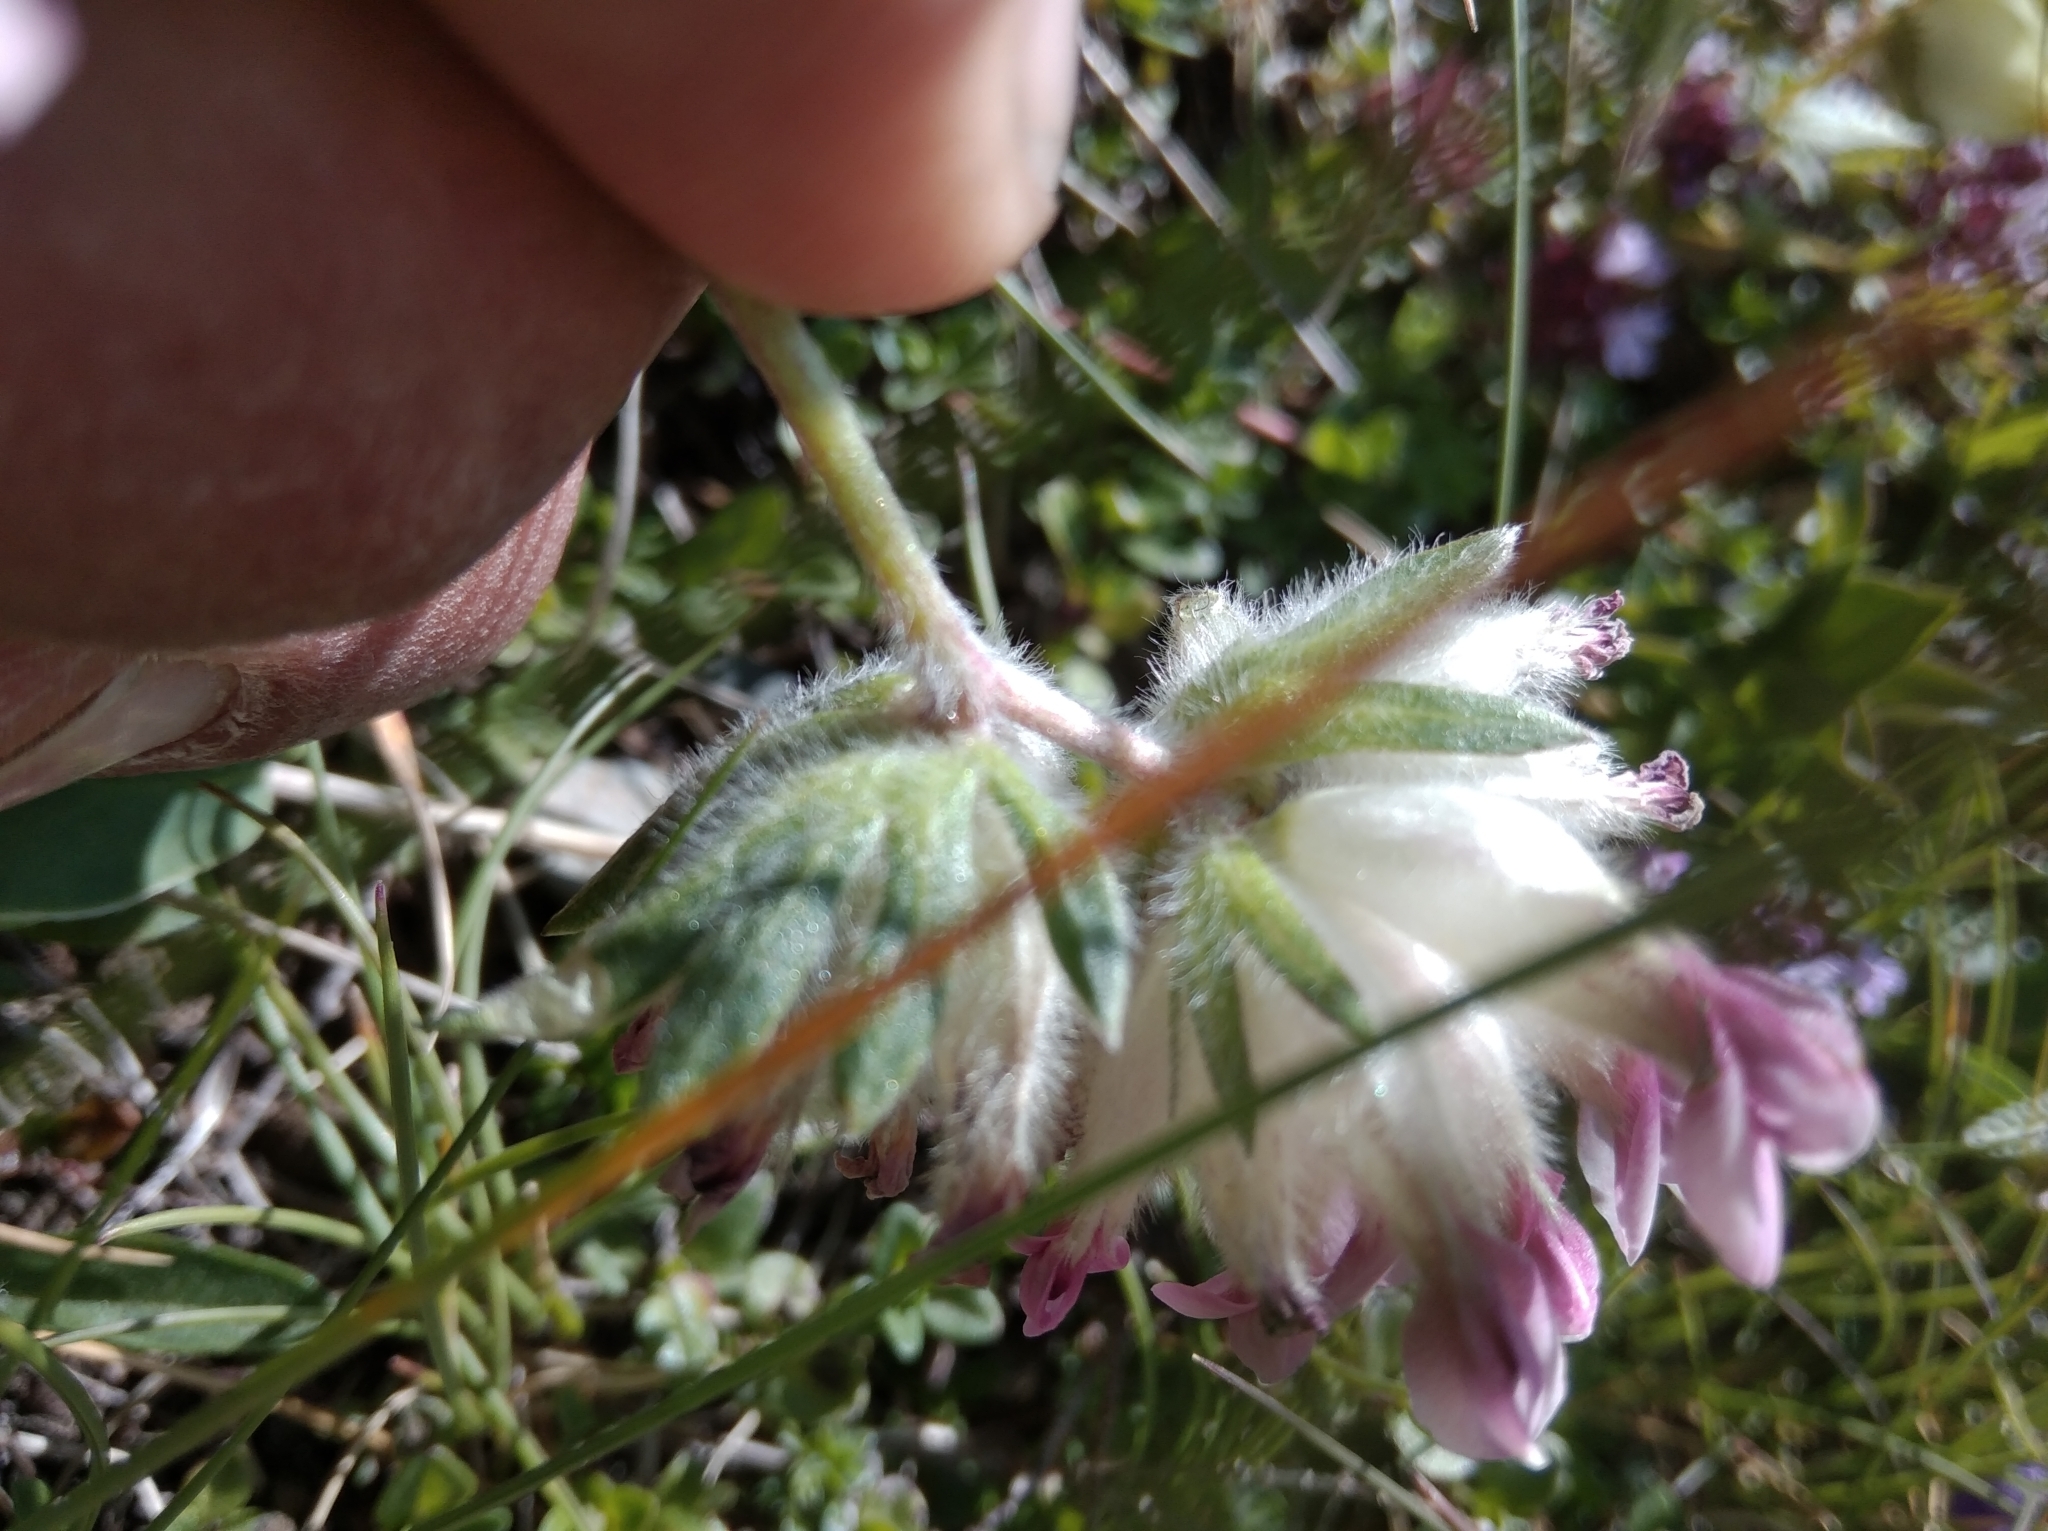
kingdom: Plantae
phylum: Tracheophyta
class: Magnoliopsida
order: Fabales
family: Fabaceae
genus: Anthyllis
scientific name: Anthyllis vulneraria
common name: Kidney vetch
